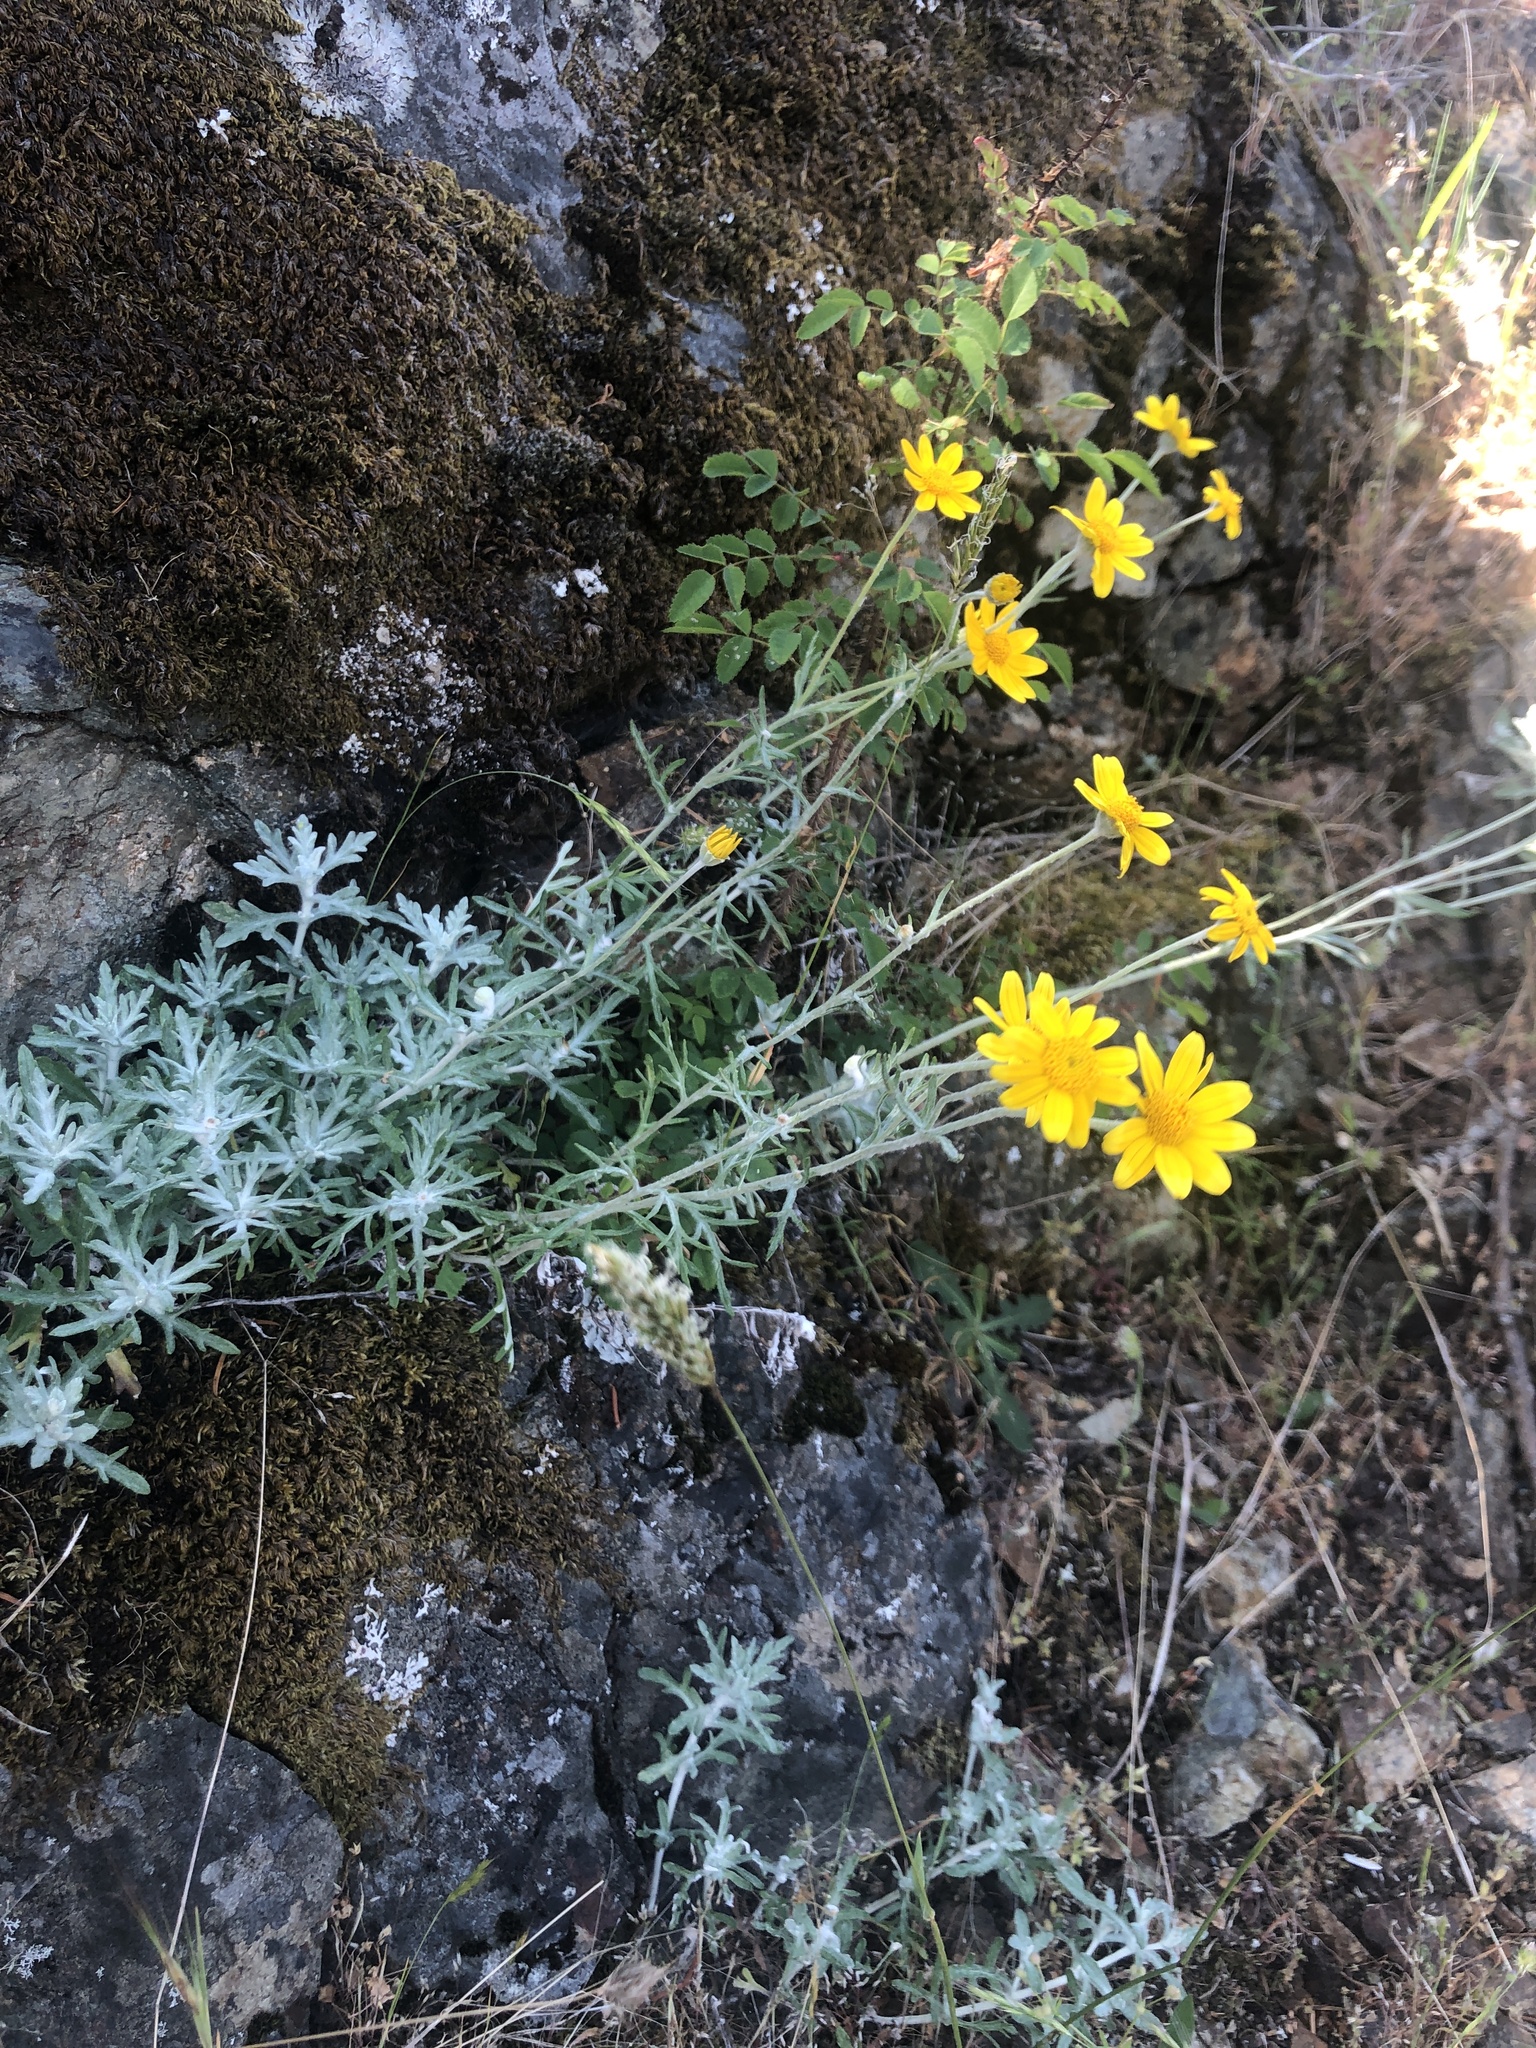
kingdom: Plantae
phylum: Tracheophyta
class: Magnoliopsida
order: Asterales
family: Asteraceae
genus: Eriophyllum
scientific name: Eriophyllum lanatum
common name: Common woolly-sunflower
